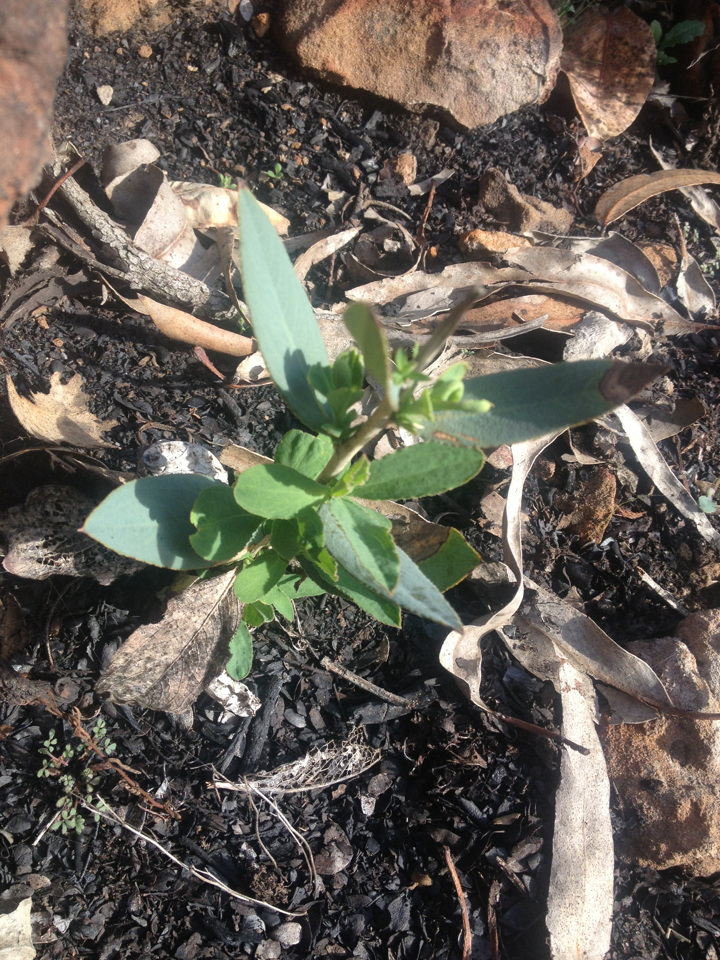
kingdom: Plantae
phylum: Tracheophyta
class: Magnoliopsida
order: Ranunculales
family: Papaveraceae
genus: Dendromecon
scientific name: Dendromecon rigida
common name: Tree poppy
